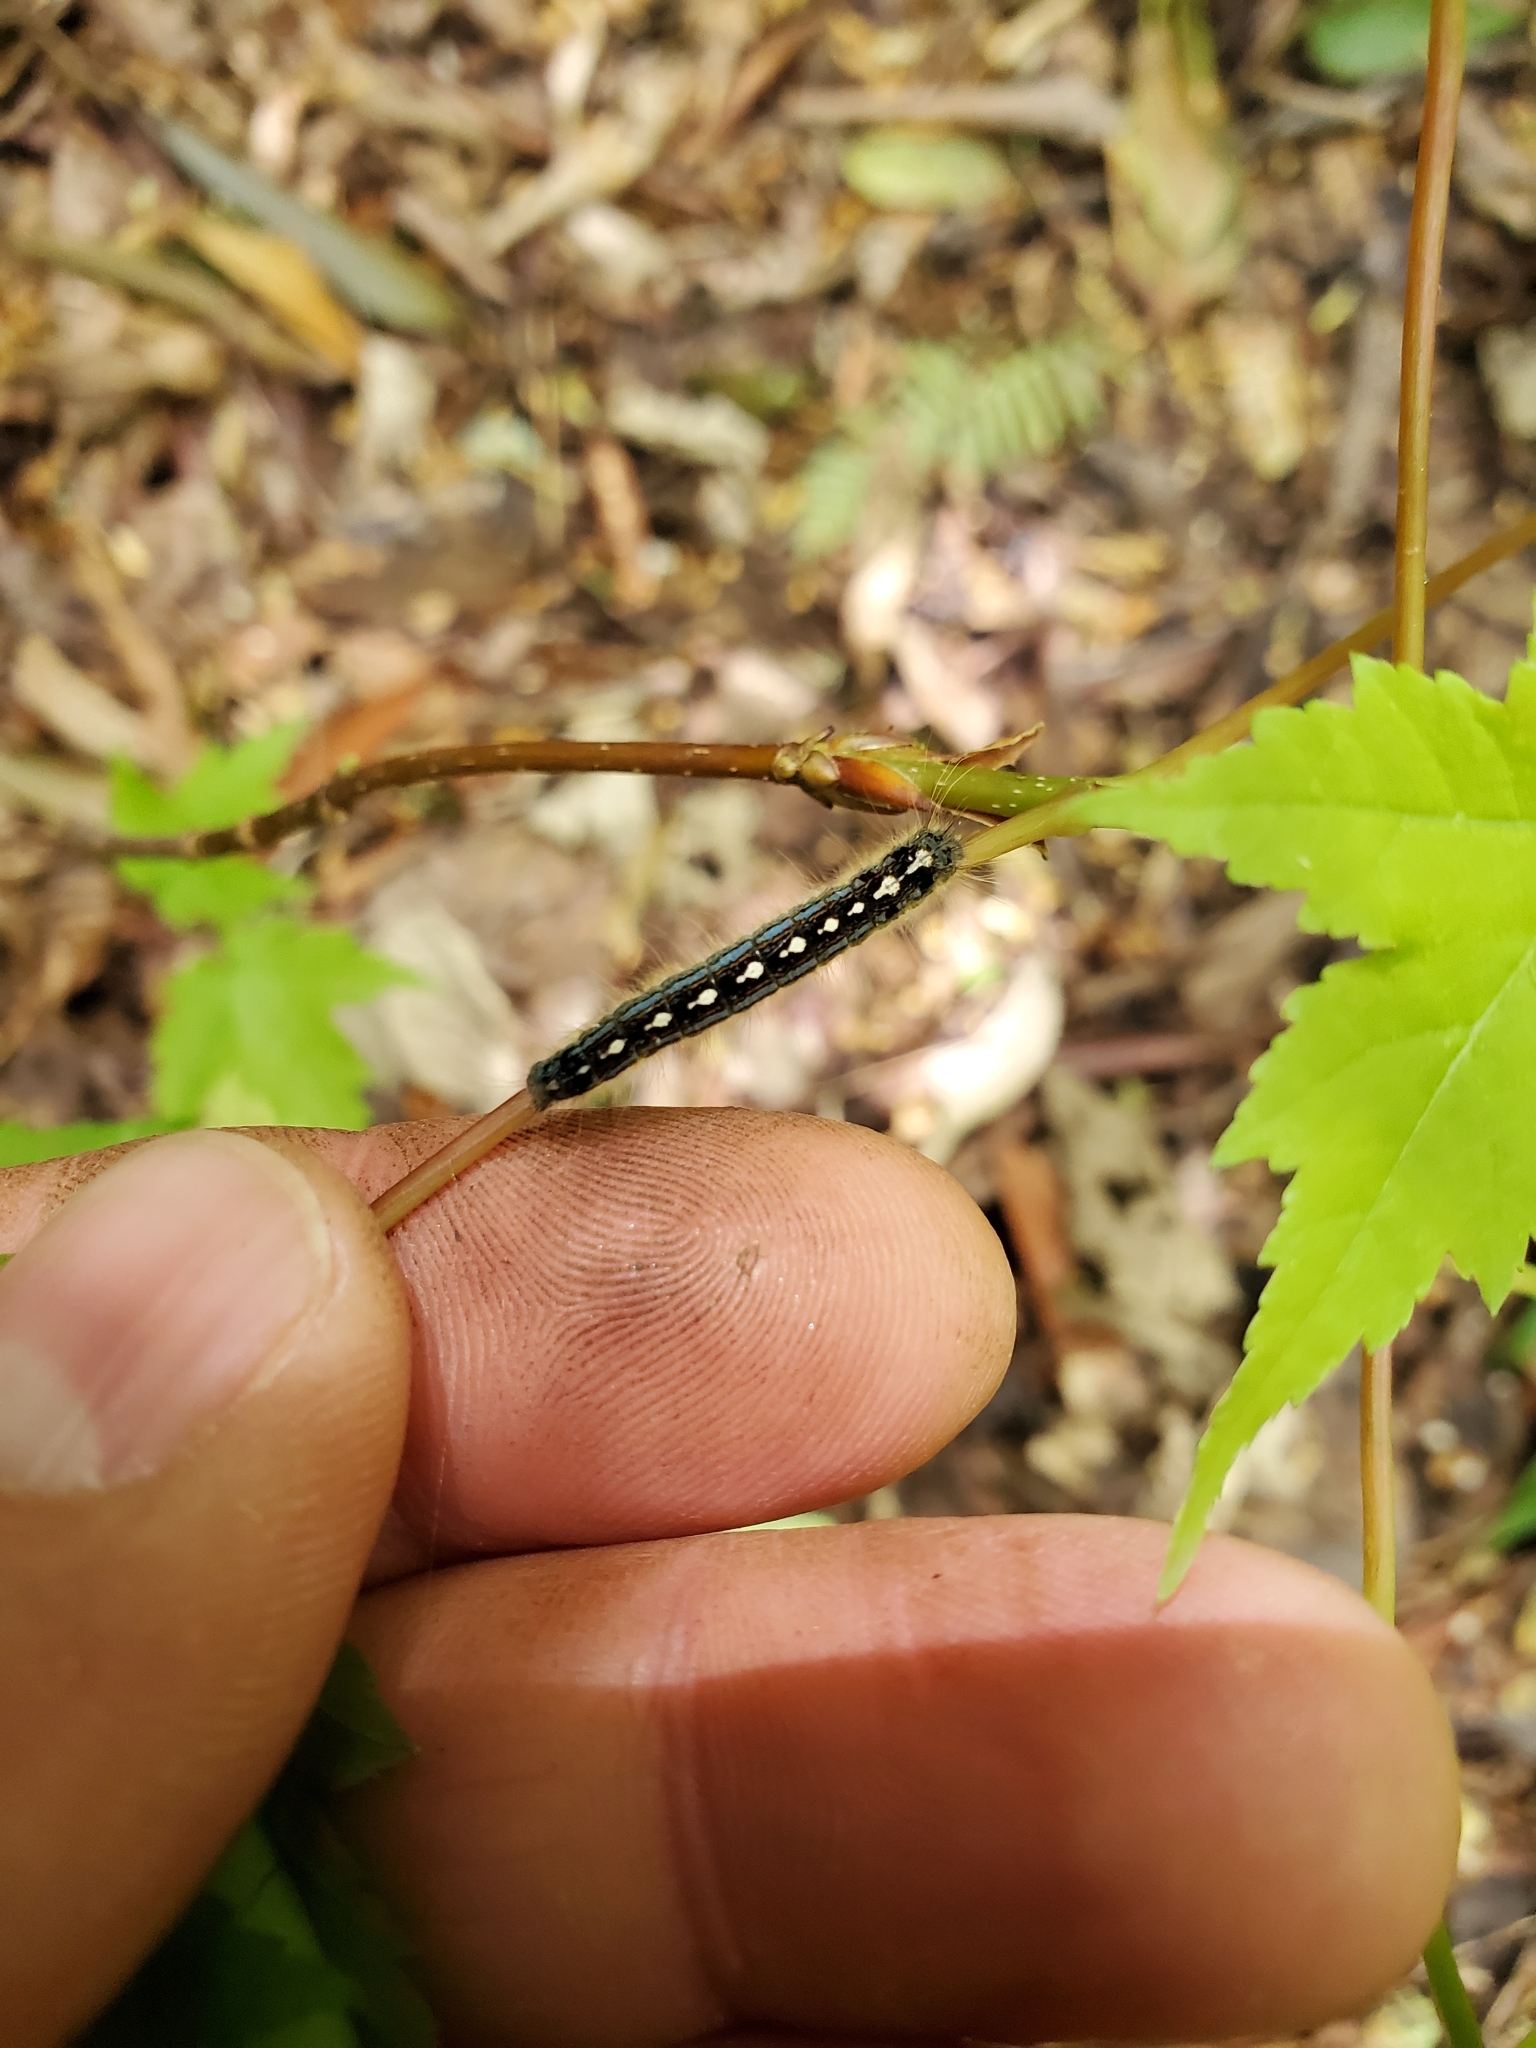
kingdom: Animalia
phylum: Arthropoda
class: Insecta
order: Lepidoptera
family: Lasiocampidae
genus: Malacosoma
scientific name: Malacosoma disstria
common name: Forest tent caterpillar
